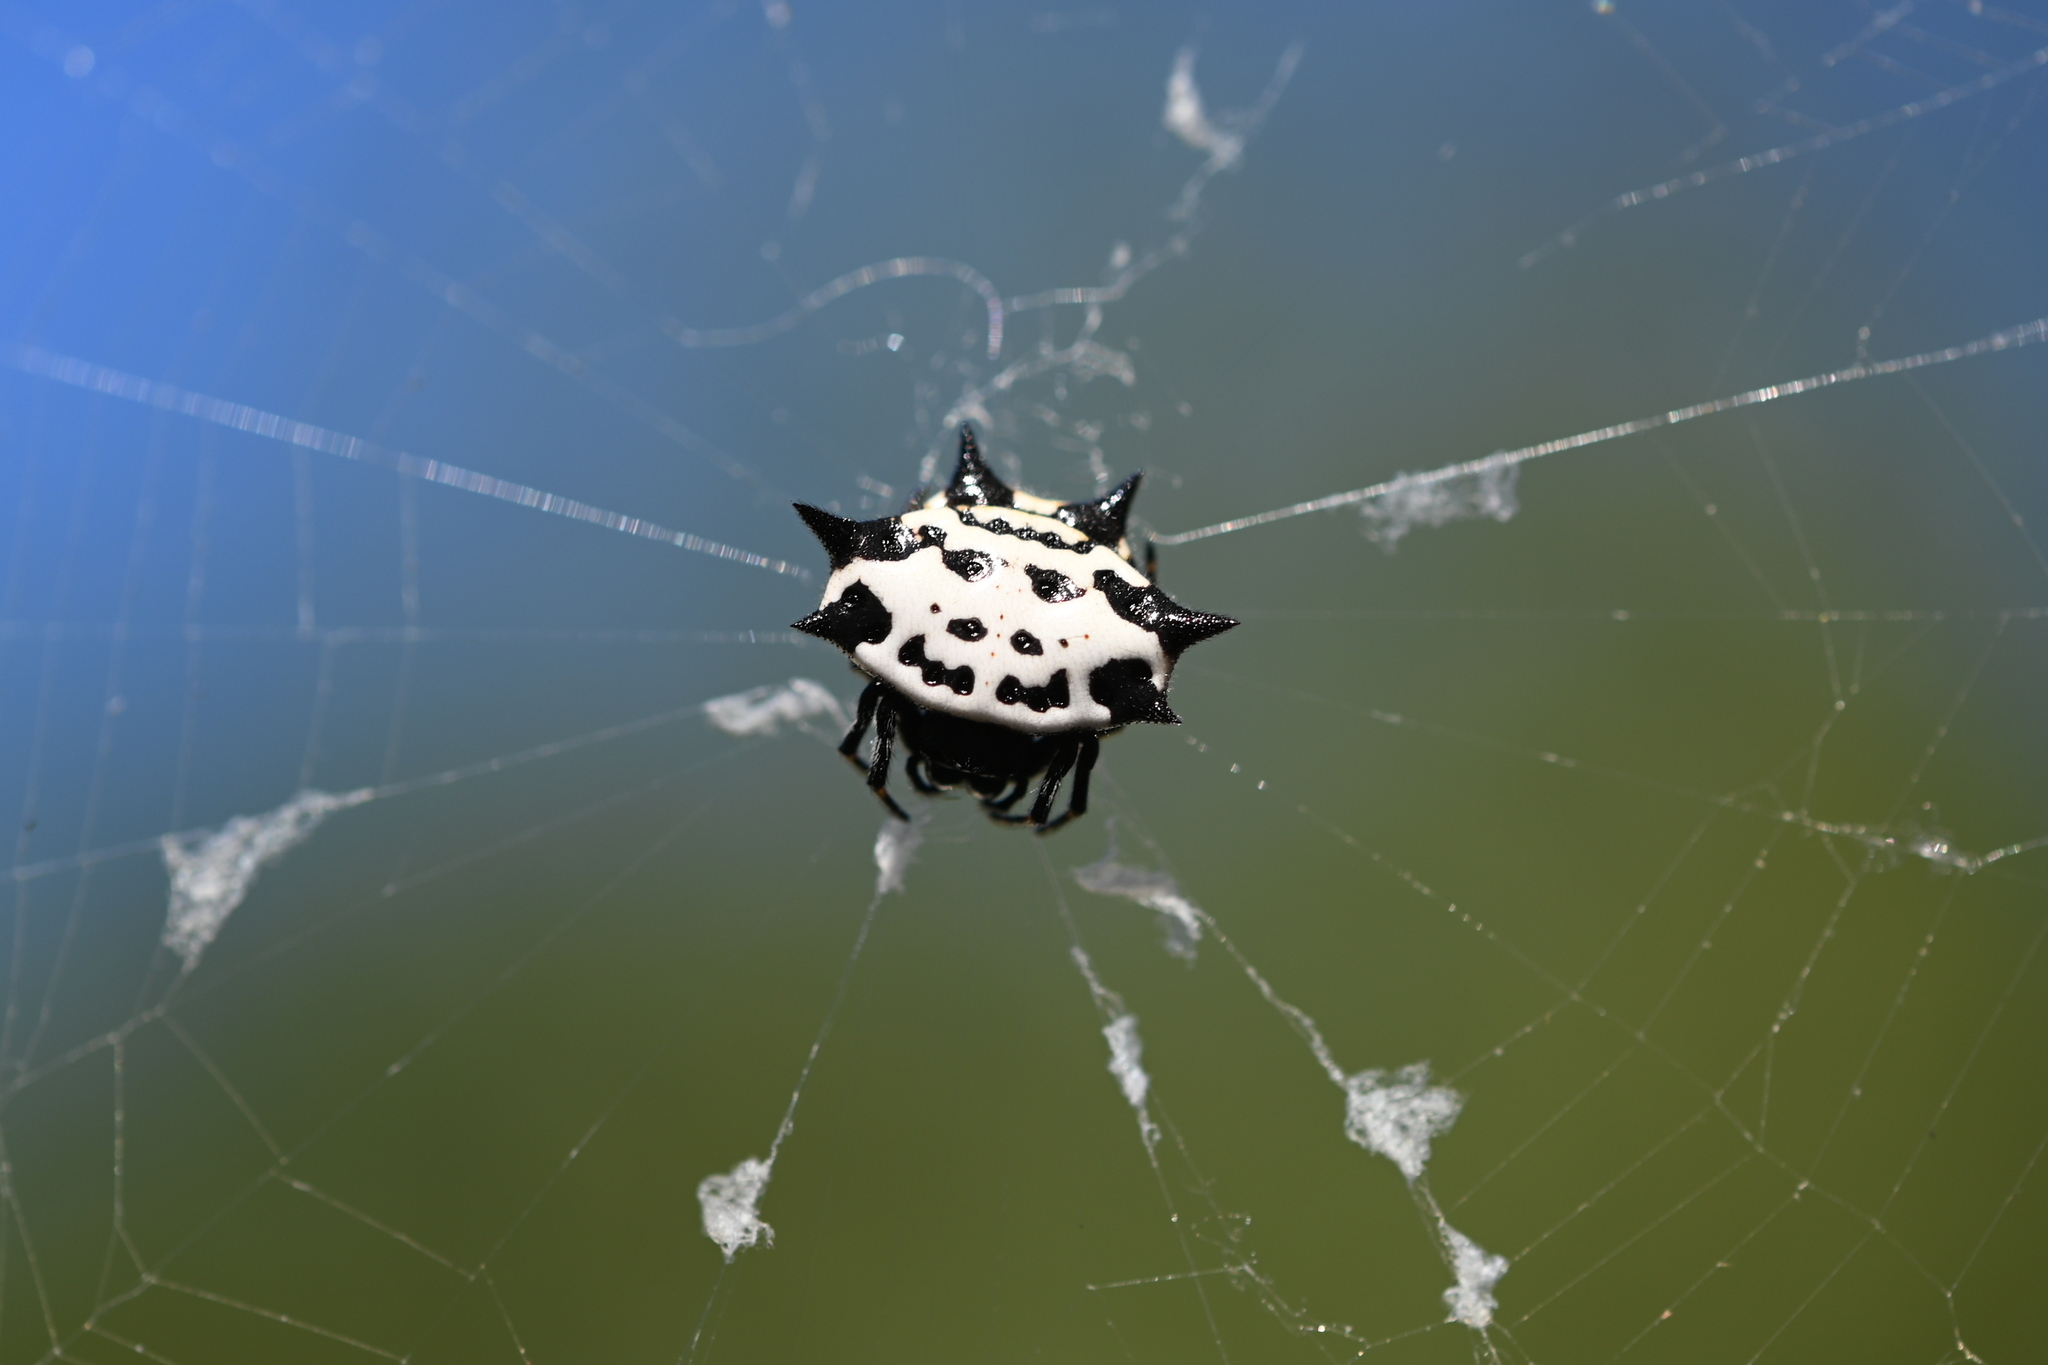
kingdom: Animalia
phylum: Arthropoda
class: Arachnida
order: Araneae
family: Araneidae
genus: Gasteracantha
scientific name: Gasteracantha cancriformis
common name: Orb weavers
